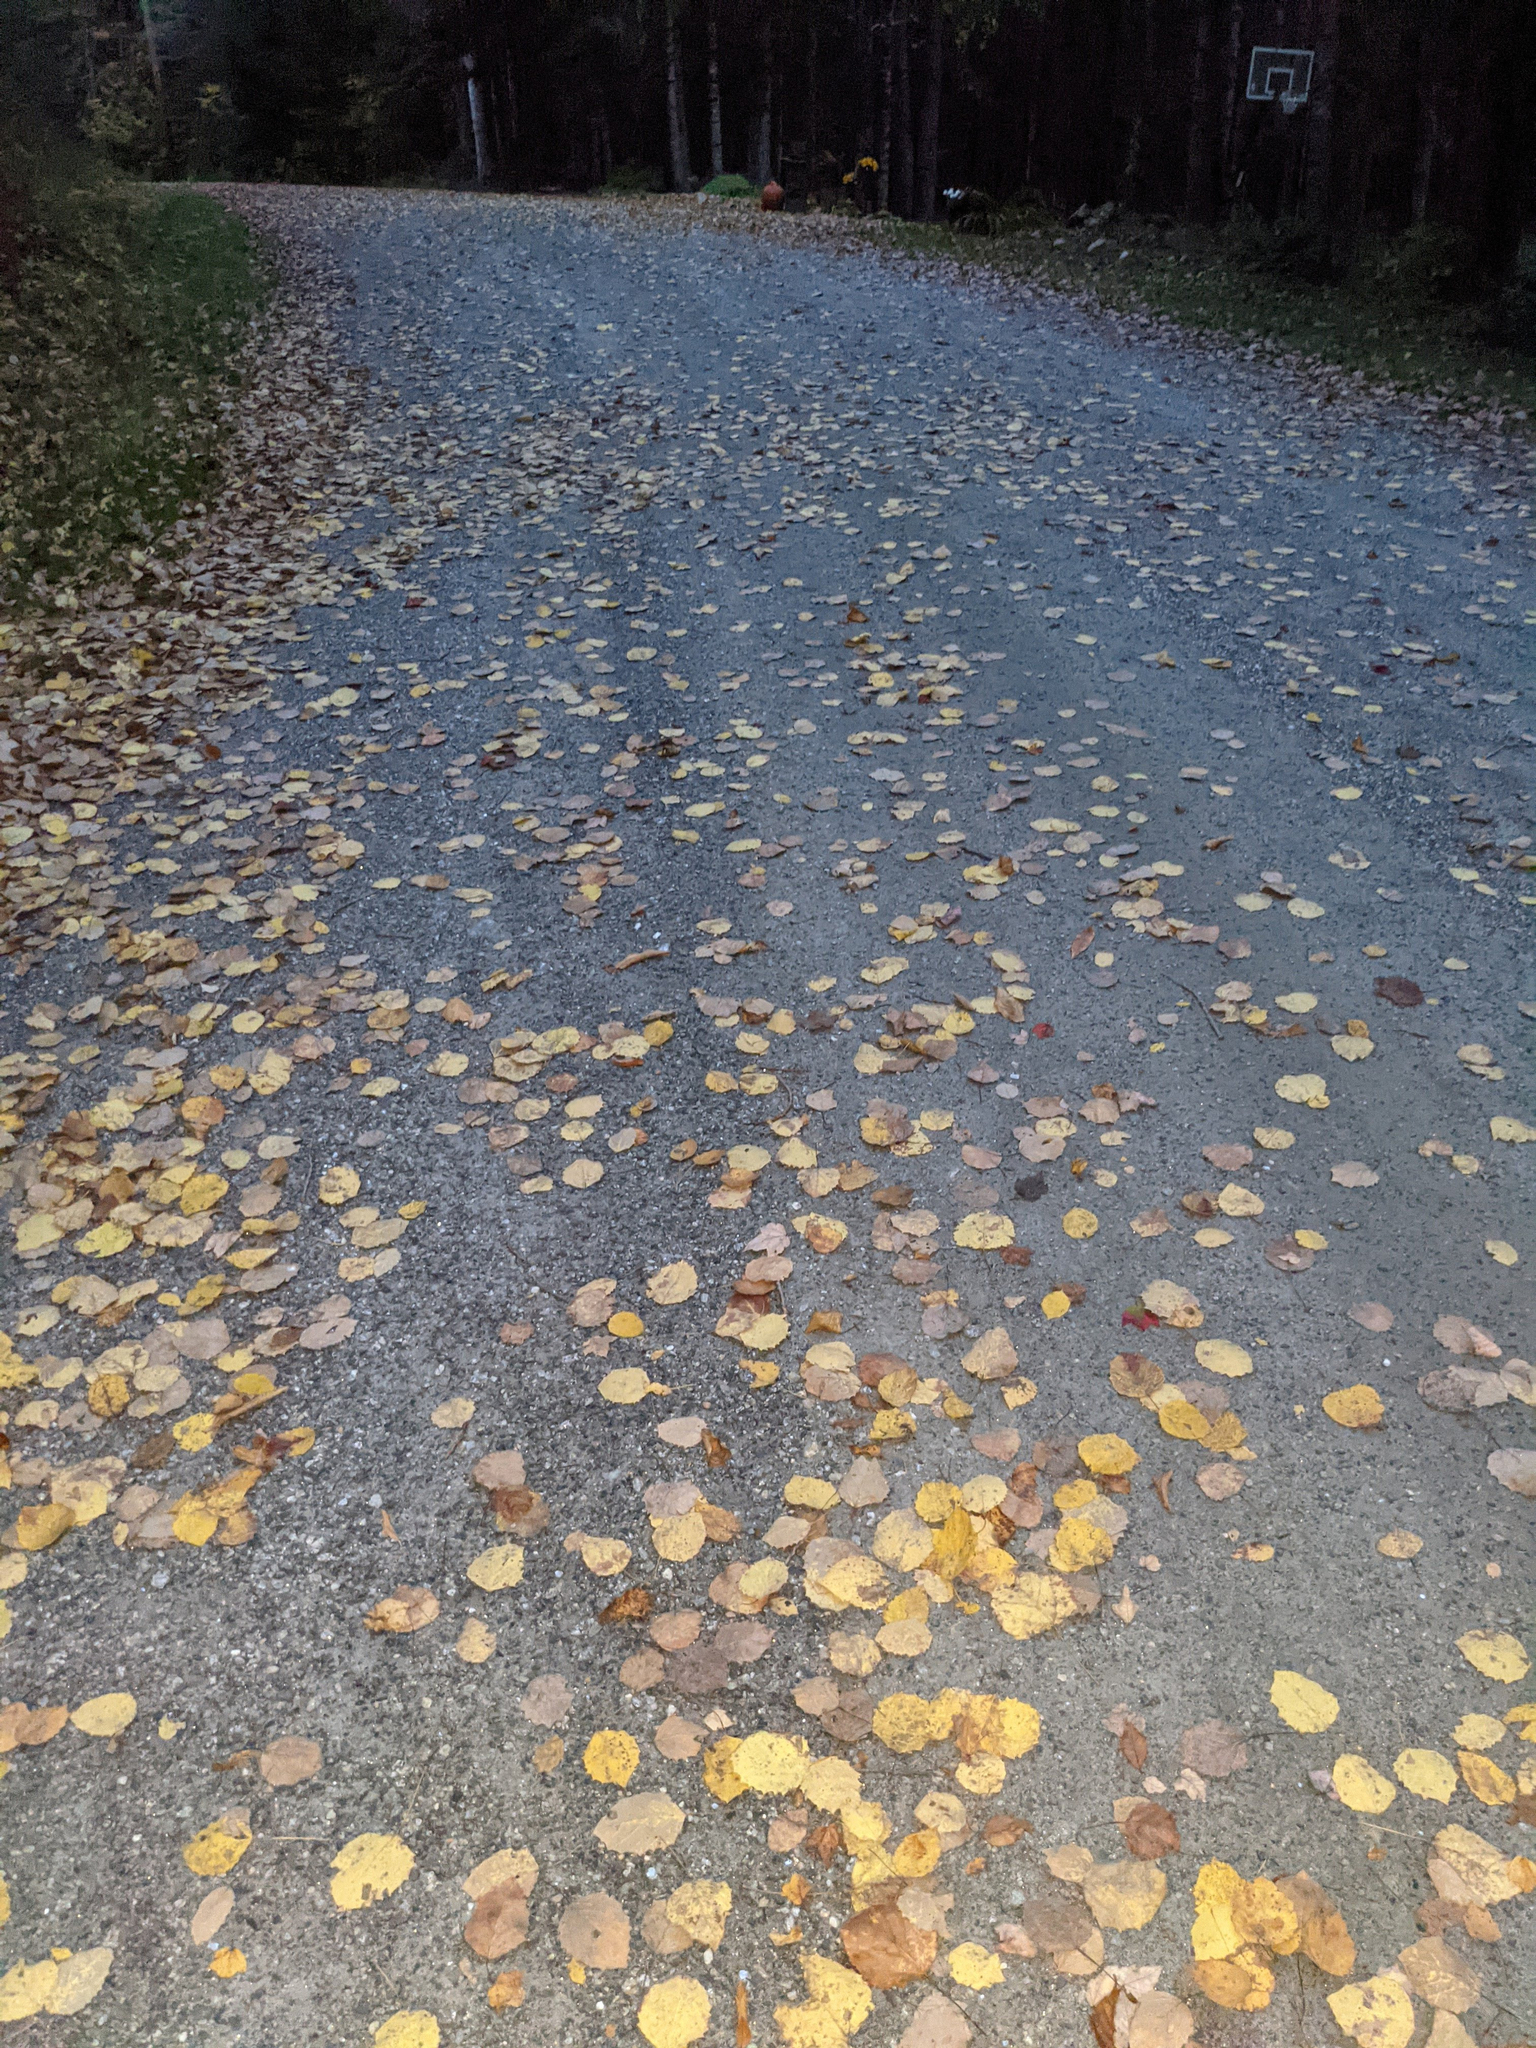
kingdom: Plantae
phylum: Tracheophyta
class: Magnoliopsida
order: Malpighiales
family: Salicaceae
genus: Populus
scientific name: Populus grandidentata
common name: Bigtooth aspen
